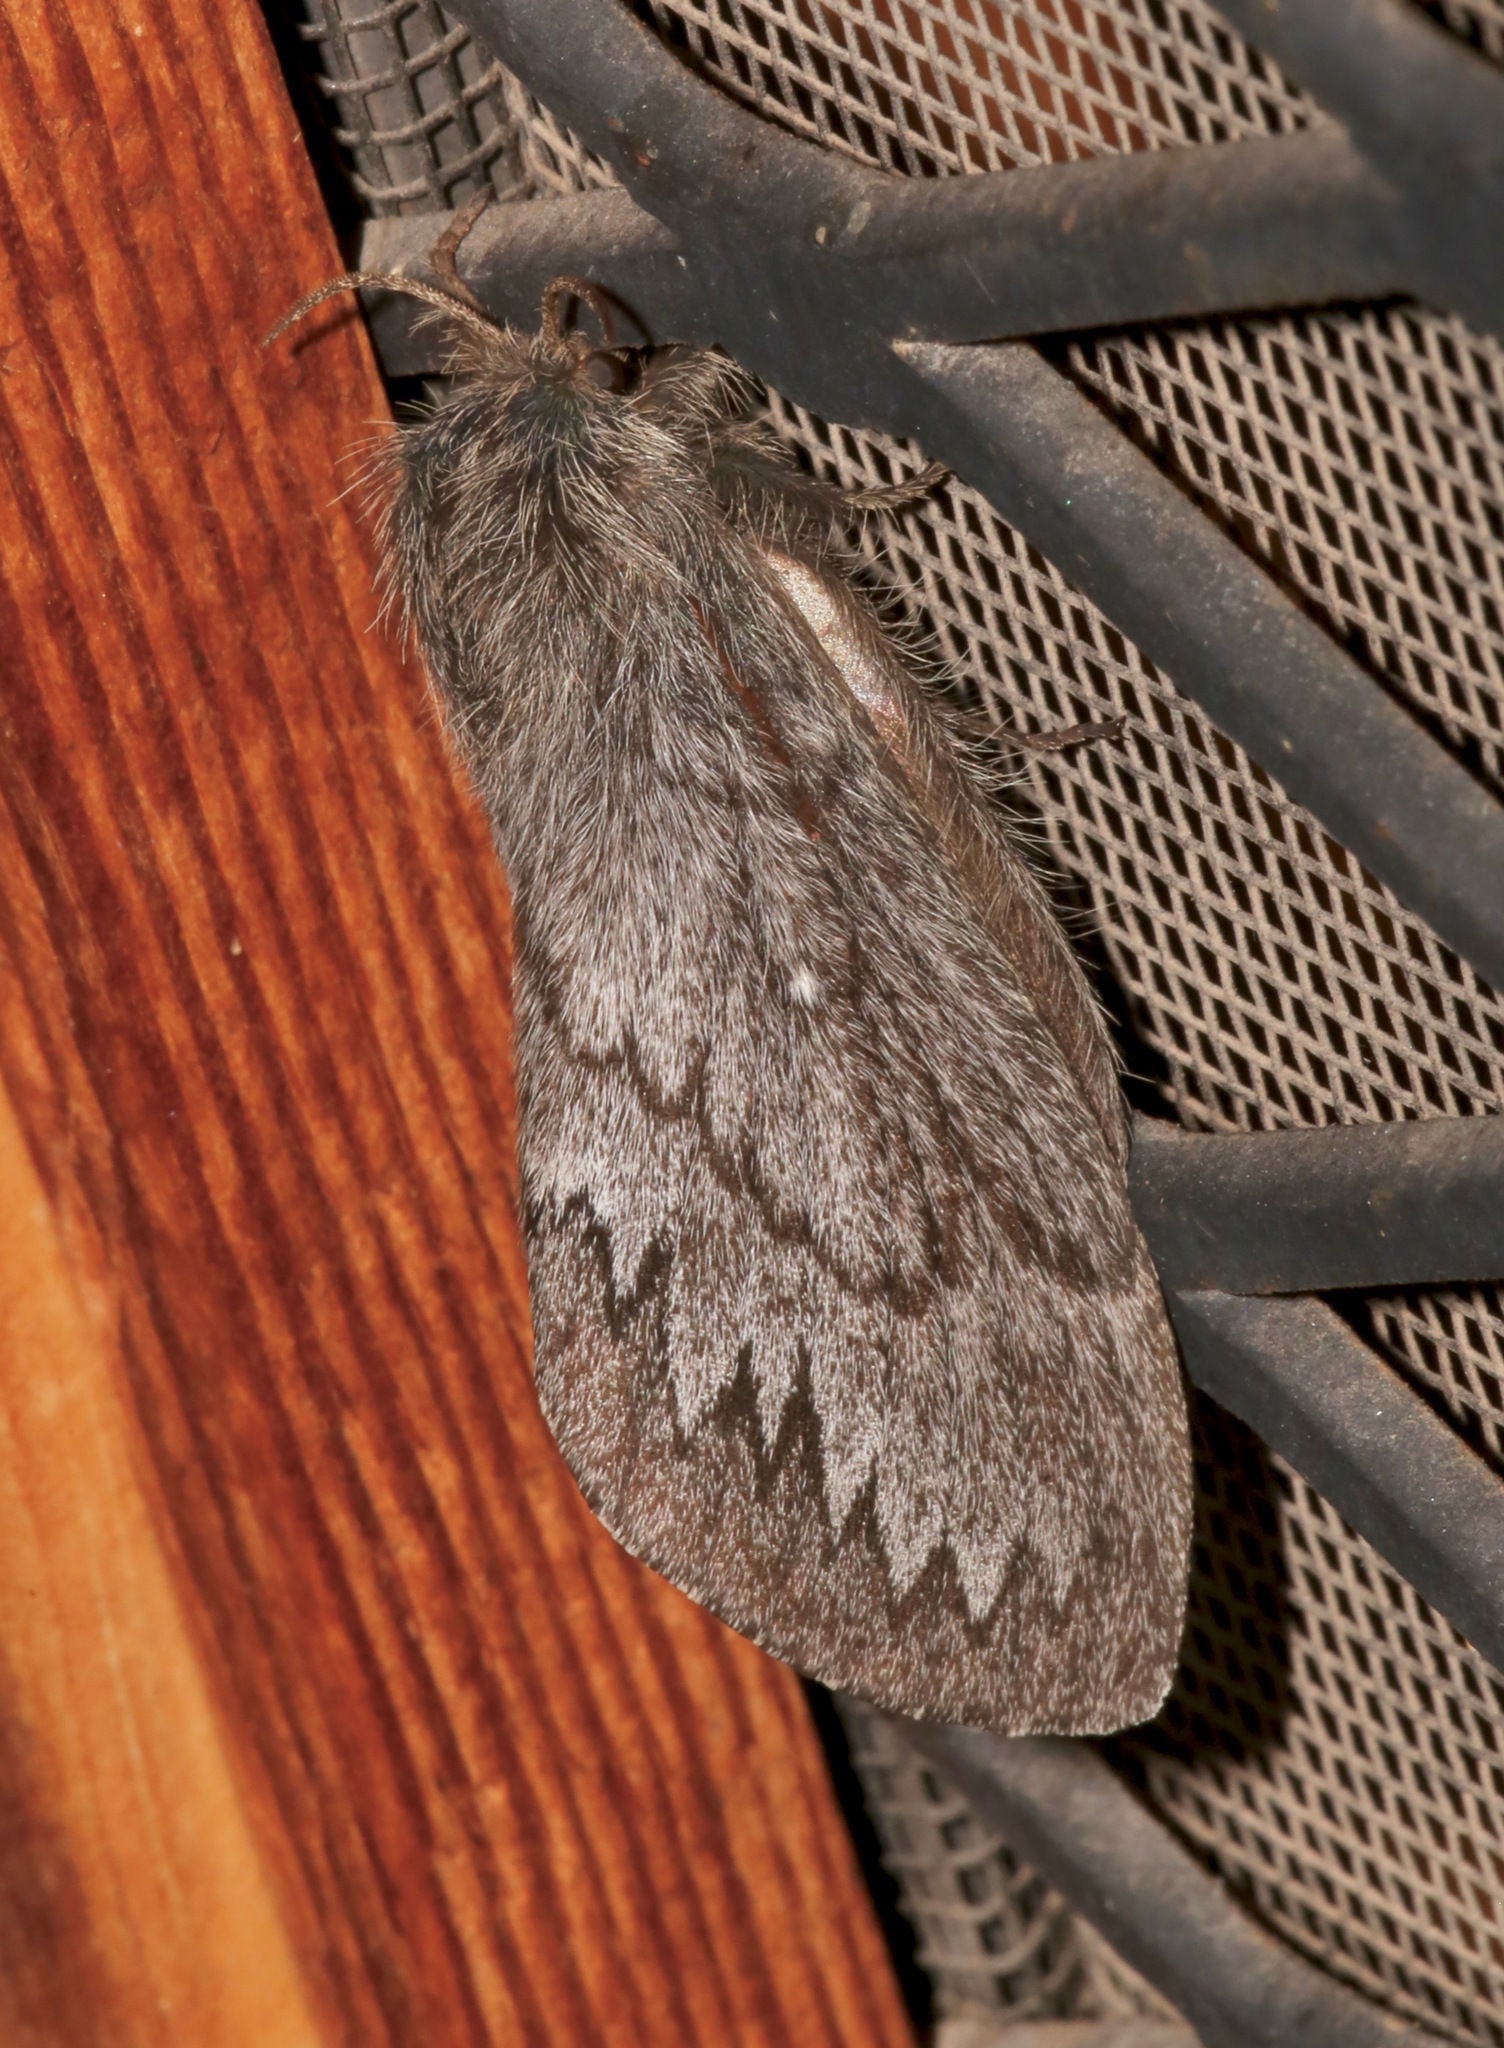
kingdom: Animalia
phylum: Arthropoda
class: Insecta
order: Lepidoptera
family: Lasiocampidae
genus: Gloveria
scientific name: Gloveria arizonensis
